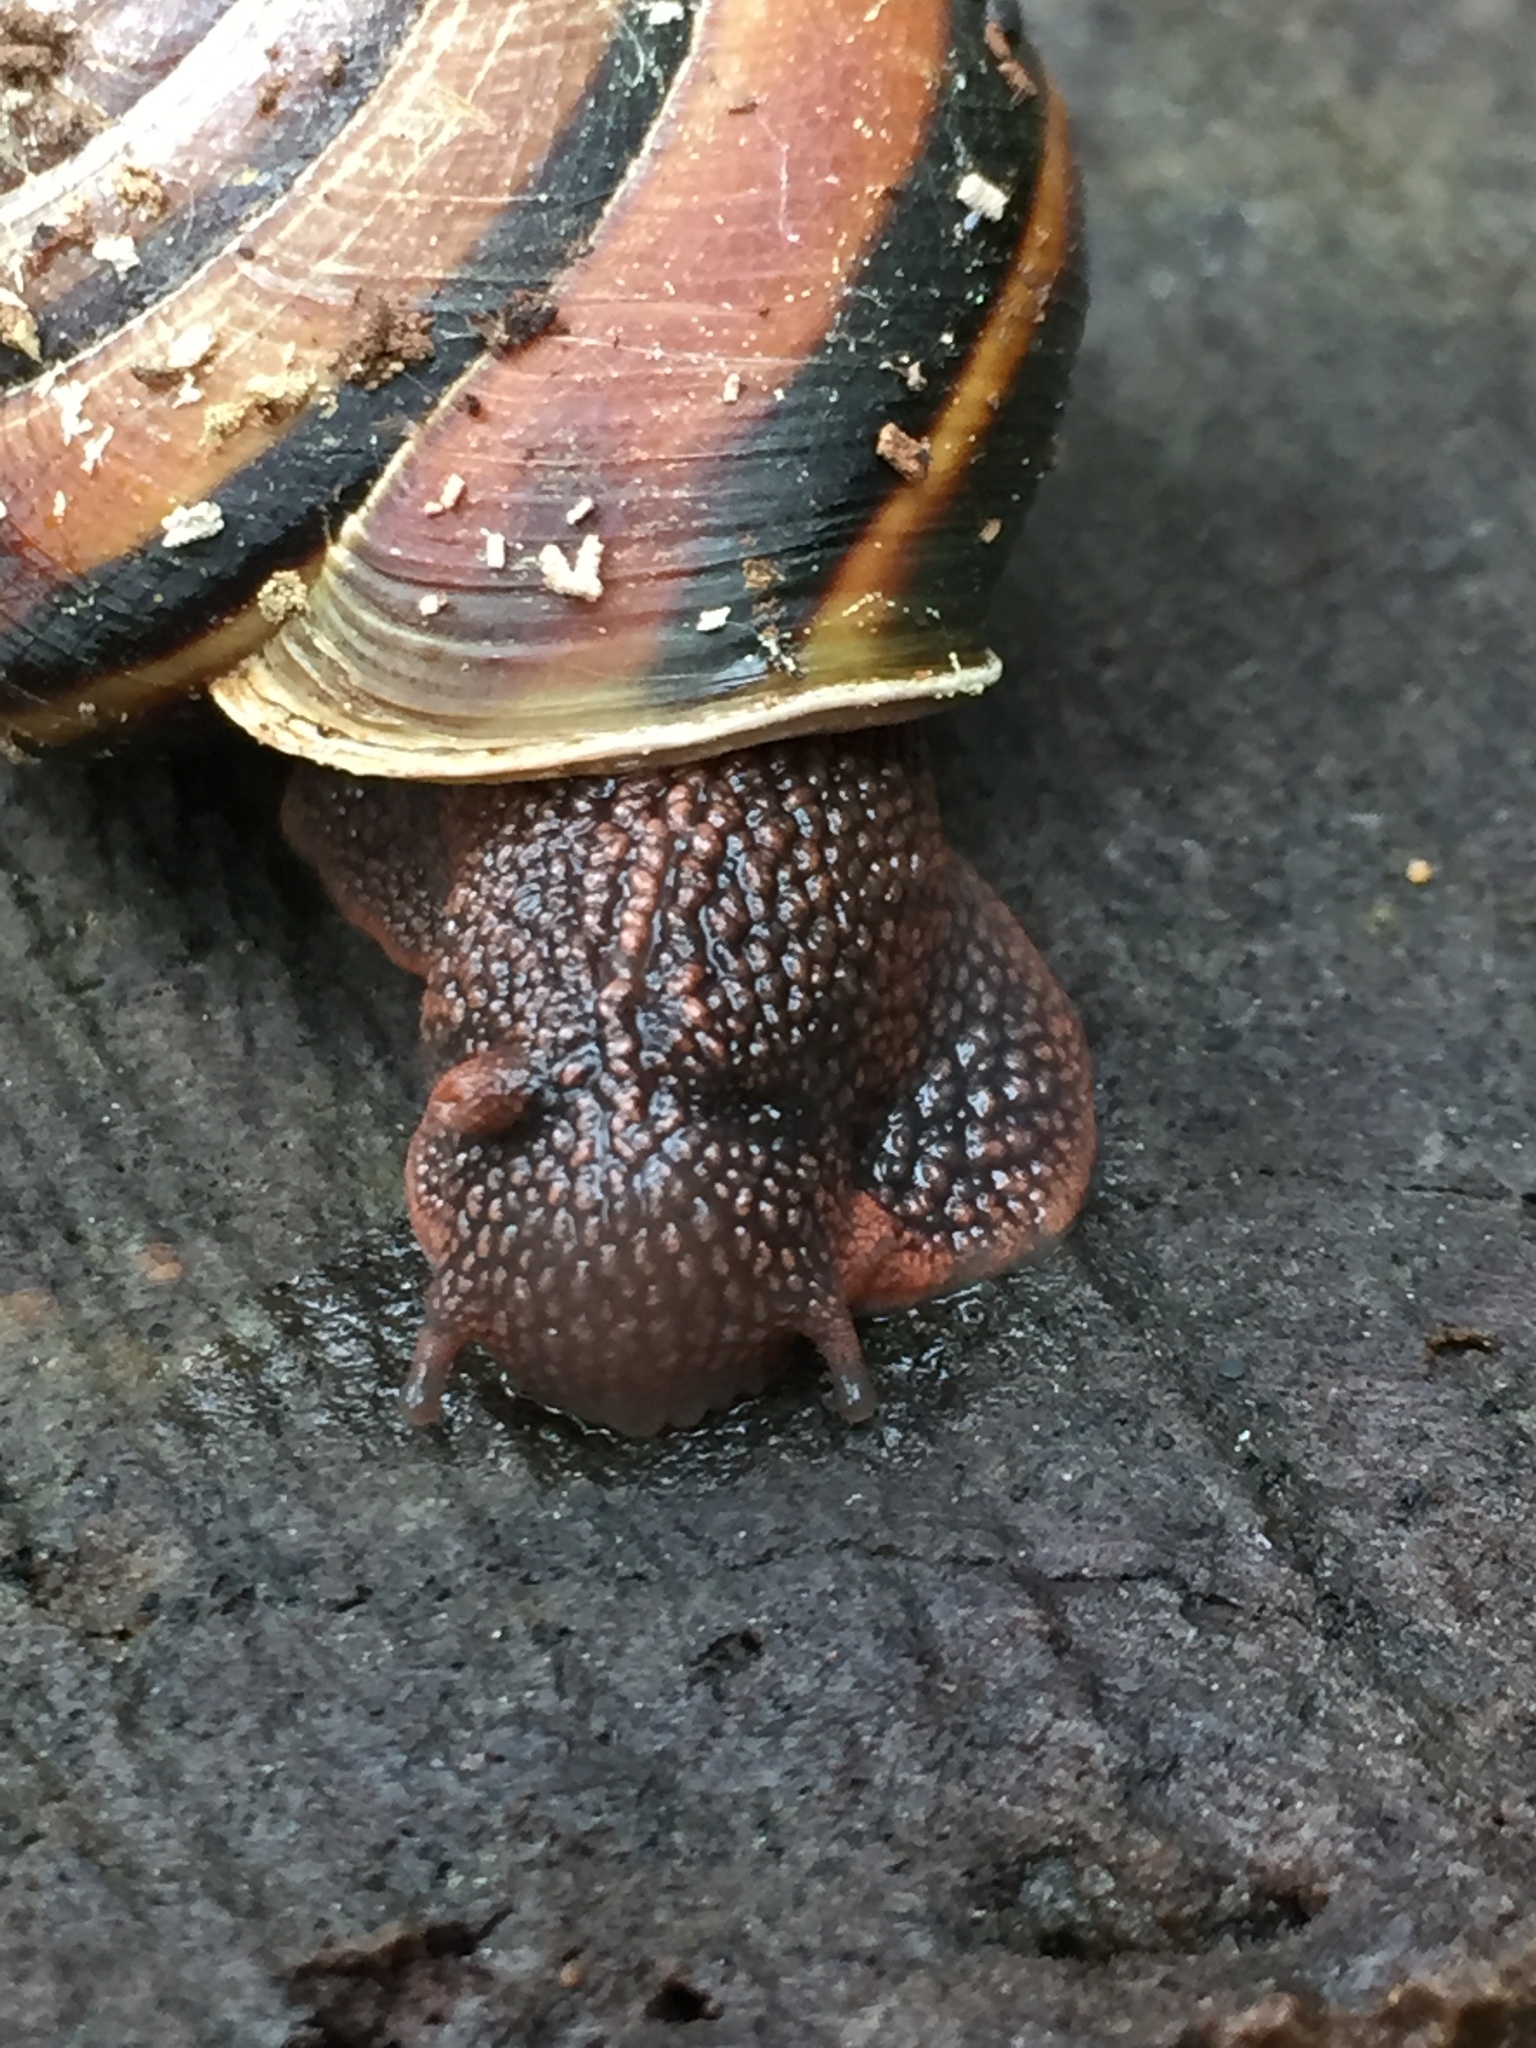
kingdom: Animalia
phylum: Mollusca
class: Gastropoda
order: Stylommatophora
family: Xanthonychidae
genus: Monadenia
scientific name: Monadenia fidelis
